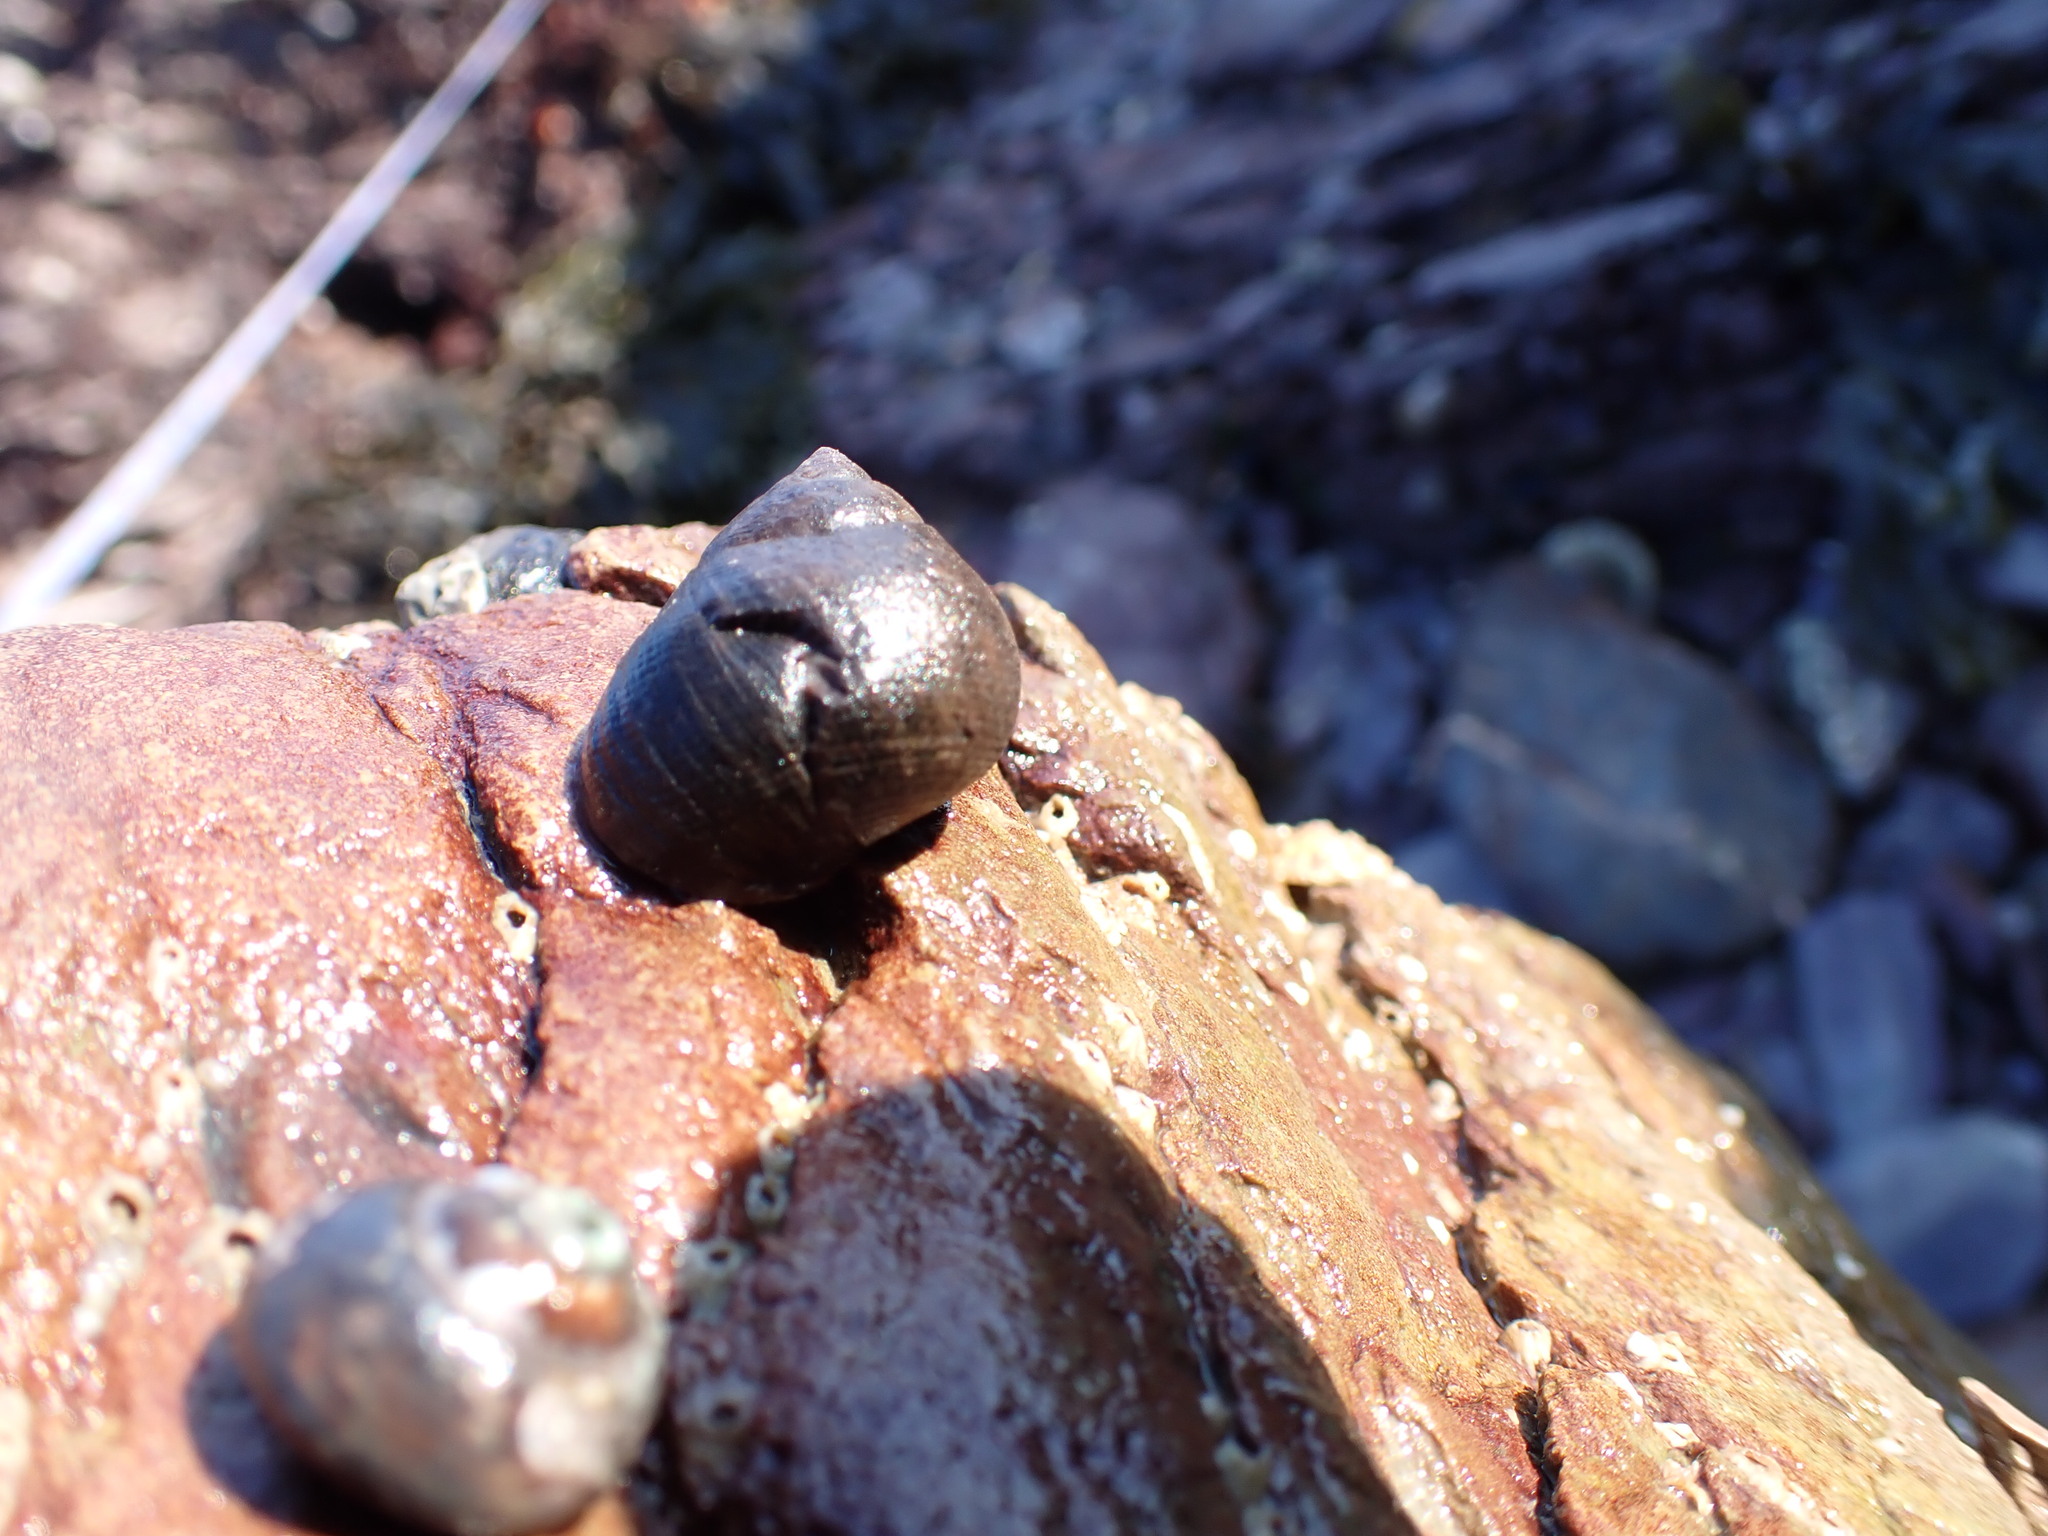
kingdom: Animalia
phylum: Mollusca
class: Gastropoda
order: Littorinimorpha
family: Littorinidae
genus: Littorina
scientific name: Littorina littorea
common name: Common periwinkle
